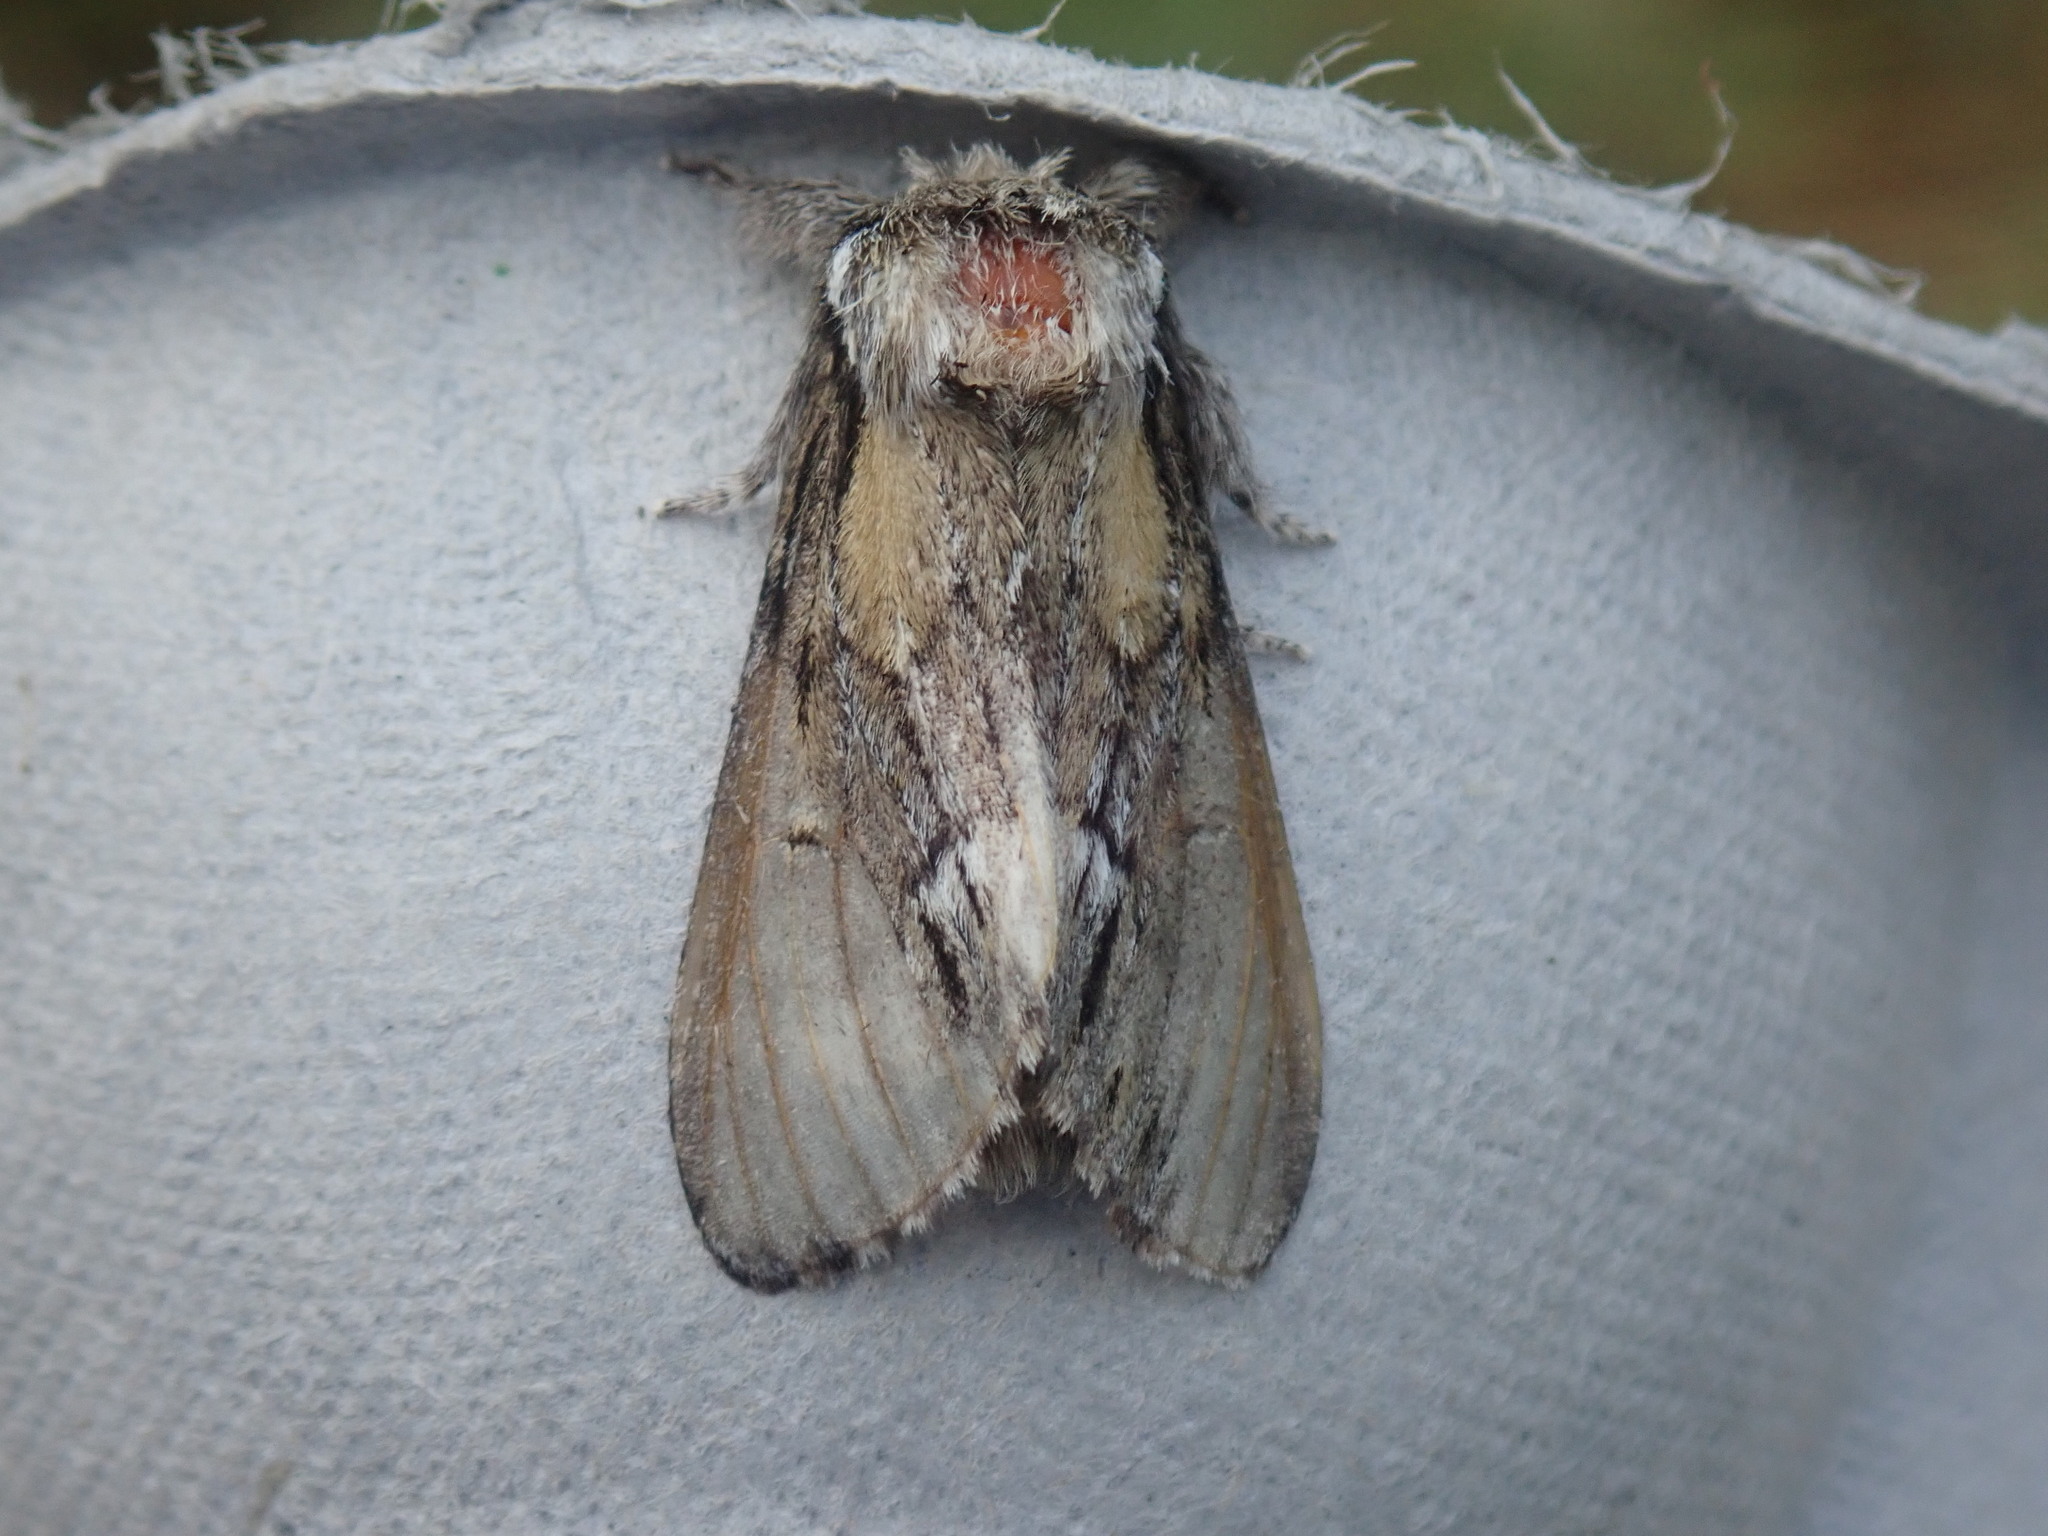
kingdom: Animalia
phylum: Arthropoda
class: Insecta
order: Lepidoptera
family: Notodontidae
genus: Paraeschra
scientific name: Paraeschra georgica
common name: Georgian prominent
